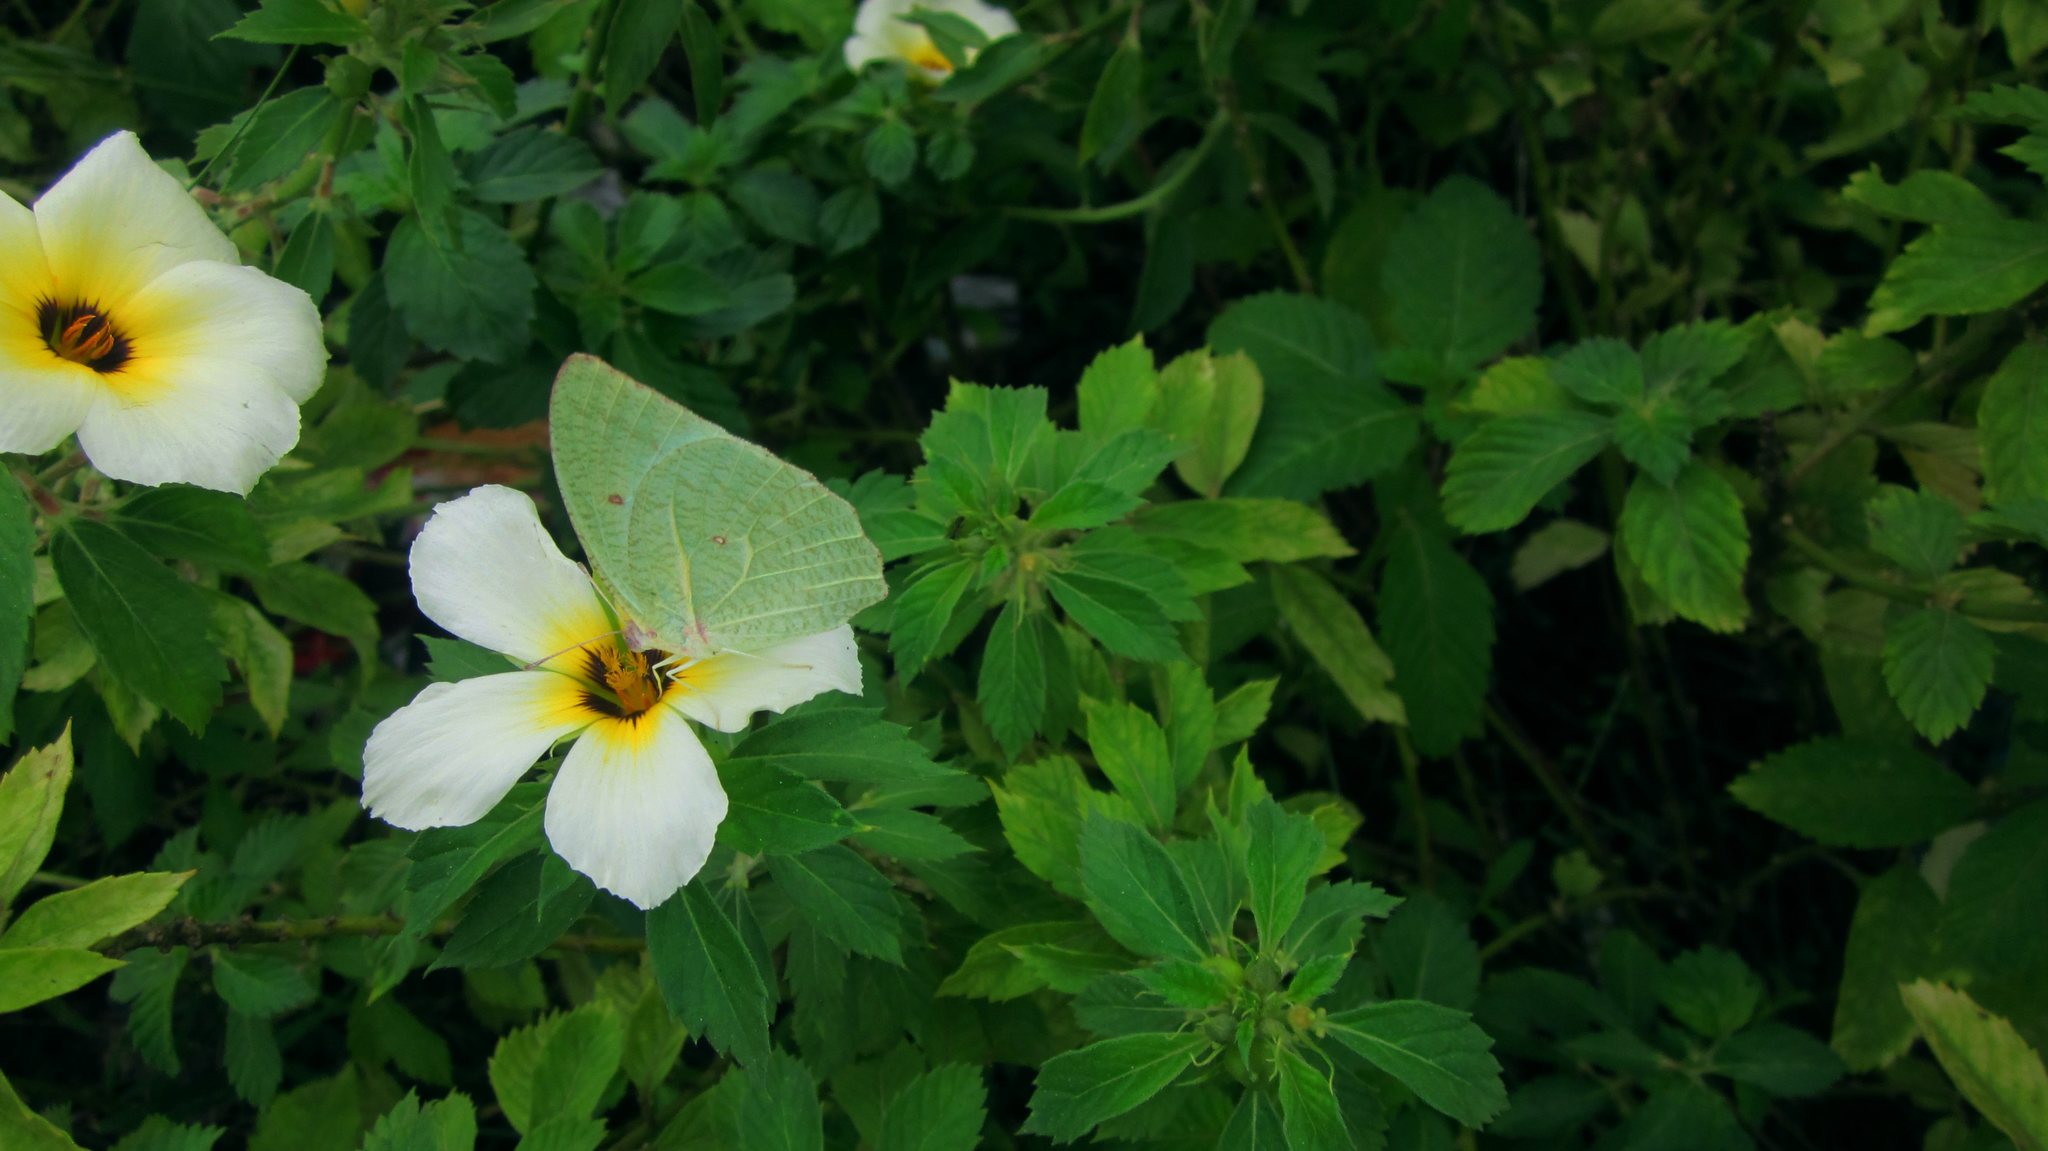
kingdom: Animalia
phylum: Arthropoda
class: Insecta
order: Lepidoptera
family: Pieridae
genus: Catopsilia
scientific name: Catopsilia pyranthe
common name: Mottled emigrant
